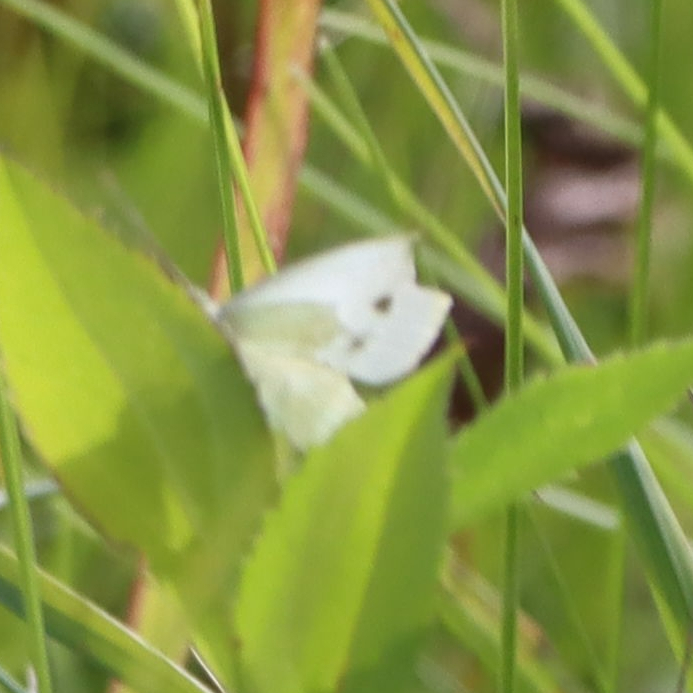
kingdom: Animalia
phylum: Arthropoda
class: Insecta
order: Lepidoptera
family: Pieridae
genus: Pieris
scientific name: Pieris rapae
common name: Small white
